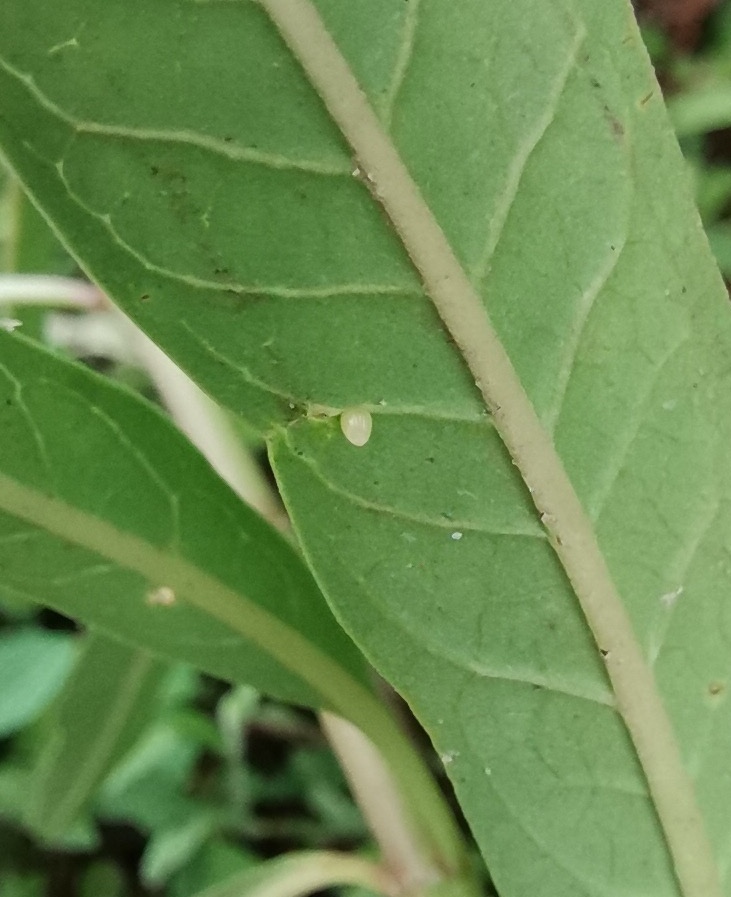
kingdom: Animalia
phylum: Arthropoda
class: Insecta
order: Lepidoptera
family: Nymphalidae
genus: Danaus
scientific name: Danaus plexippus
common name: Monarch
